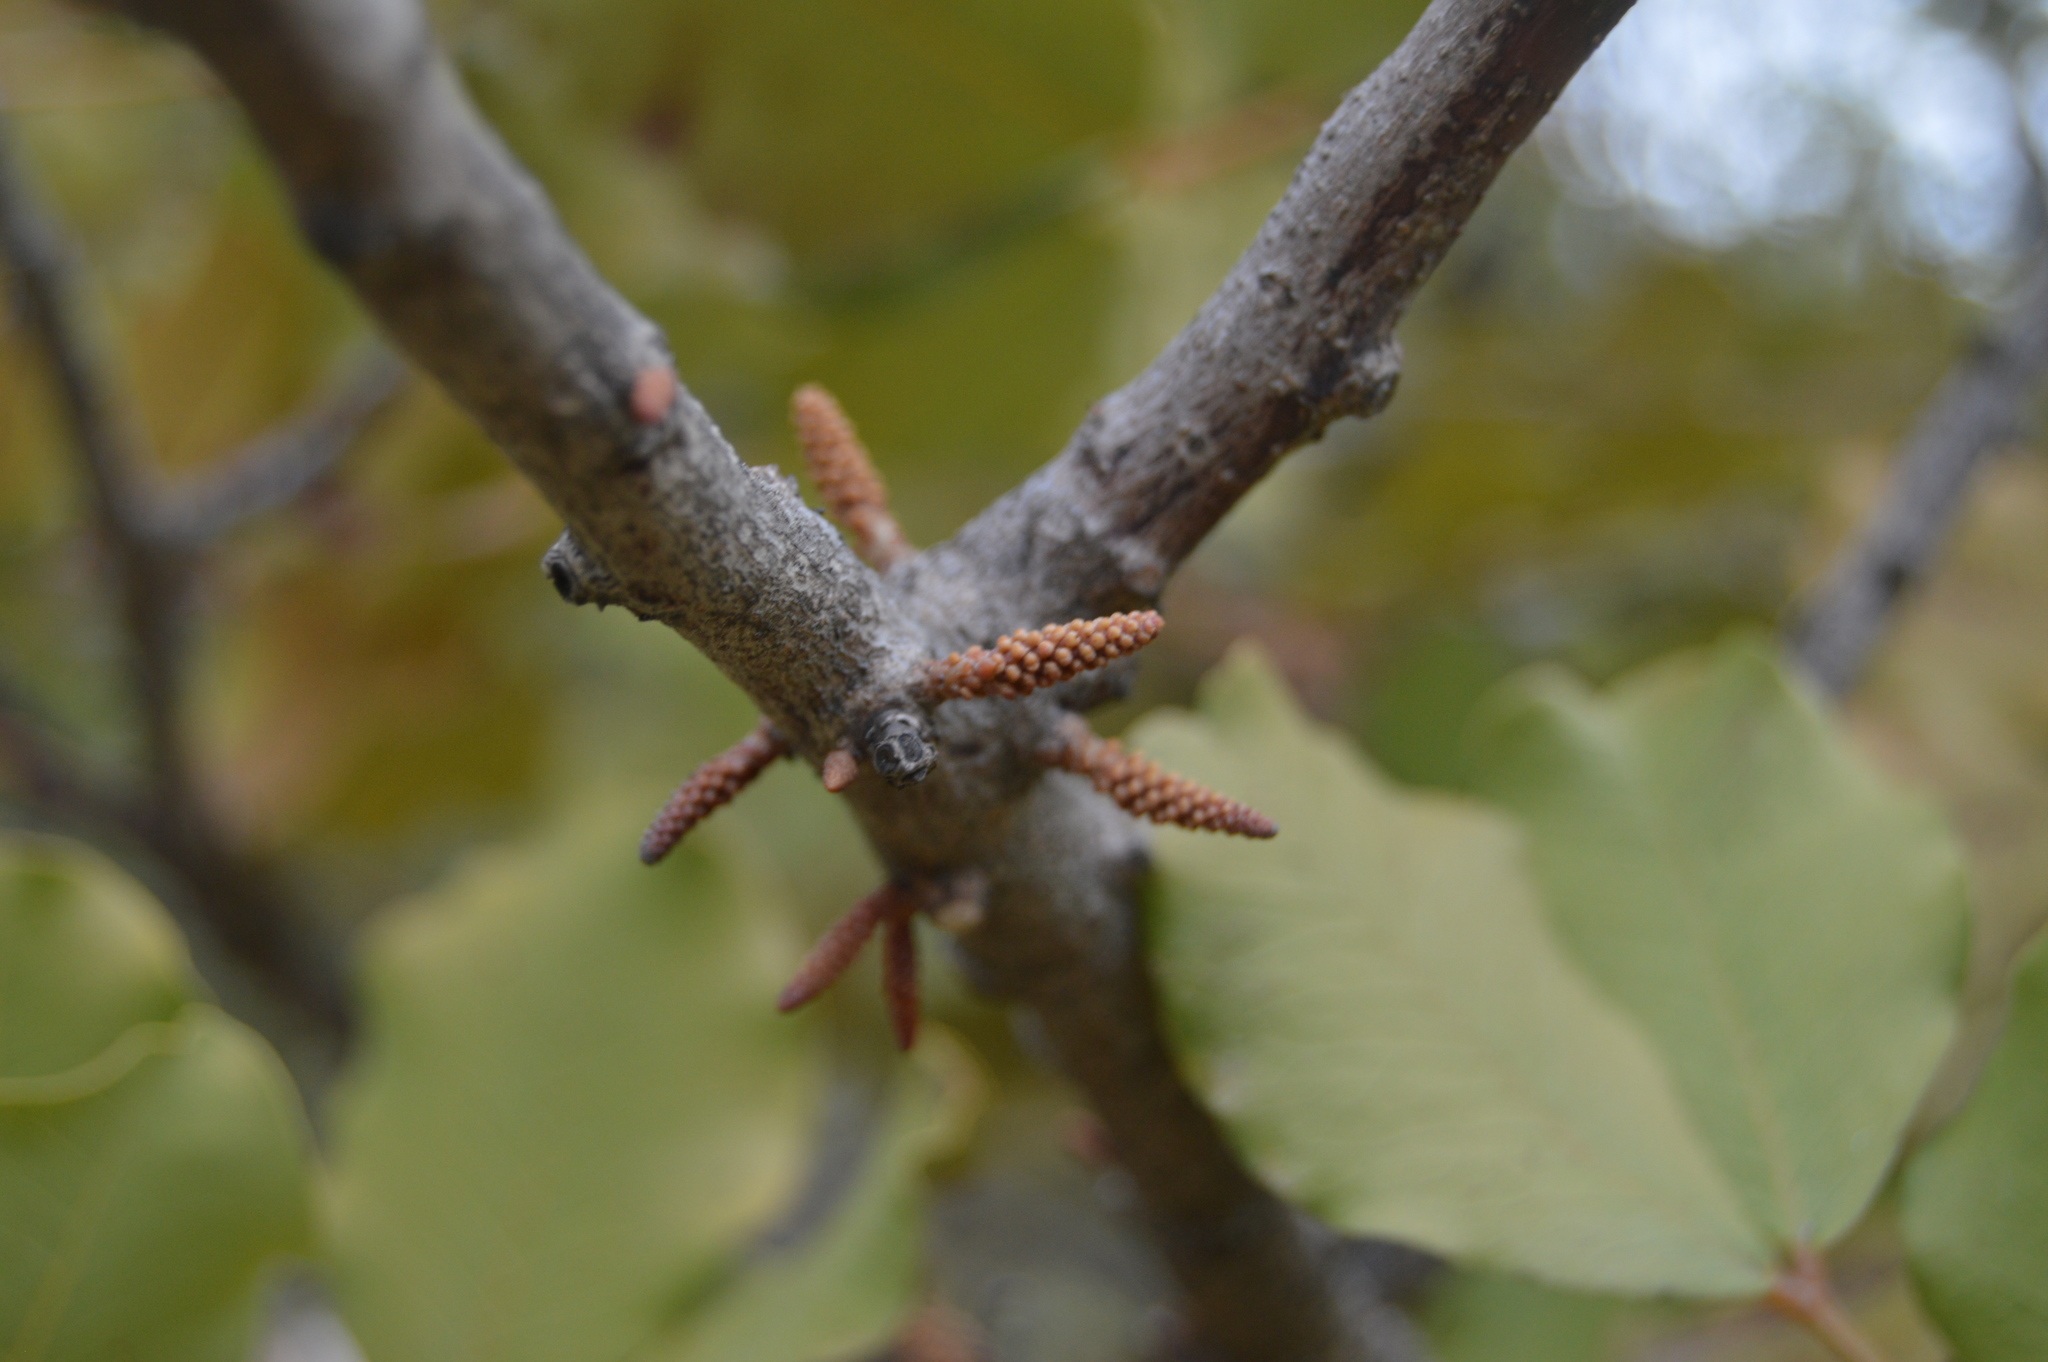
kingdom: Plantae
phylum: Tracheophyta
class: Magnoliopsida
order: Fabales
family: Fabaceae
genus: Ceratonia
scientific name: Ceratonia siliqua
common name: Carob
